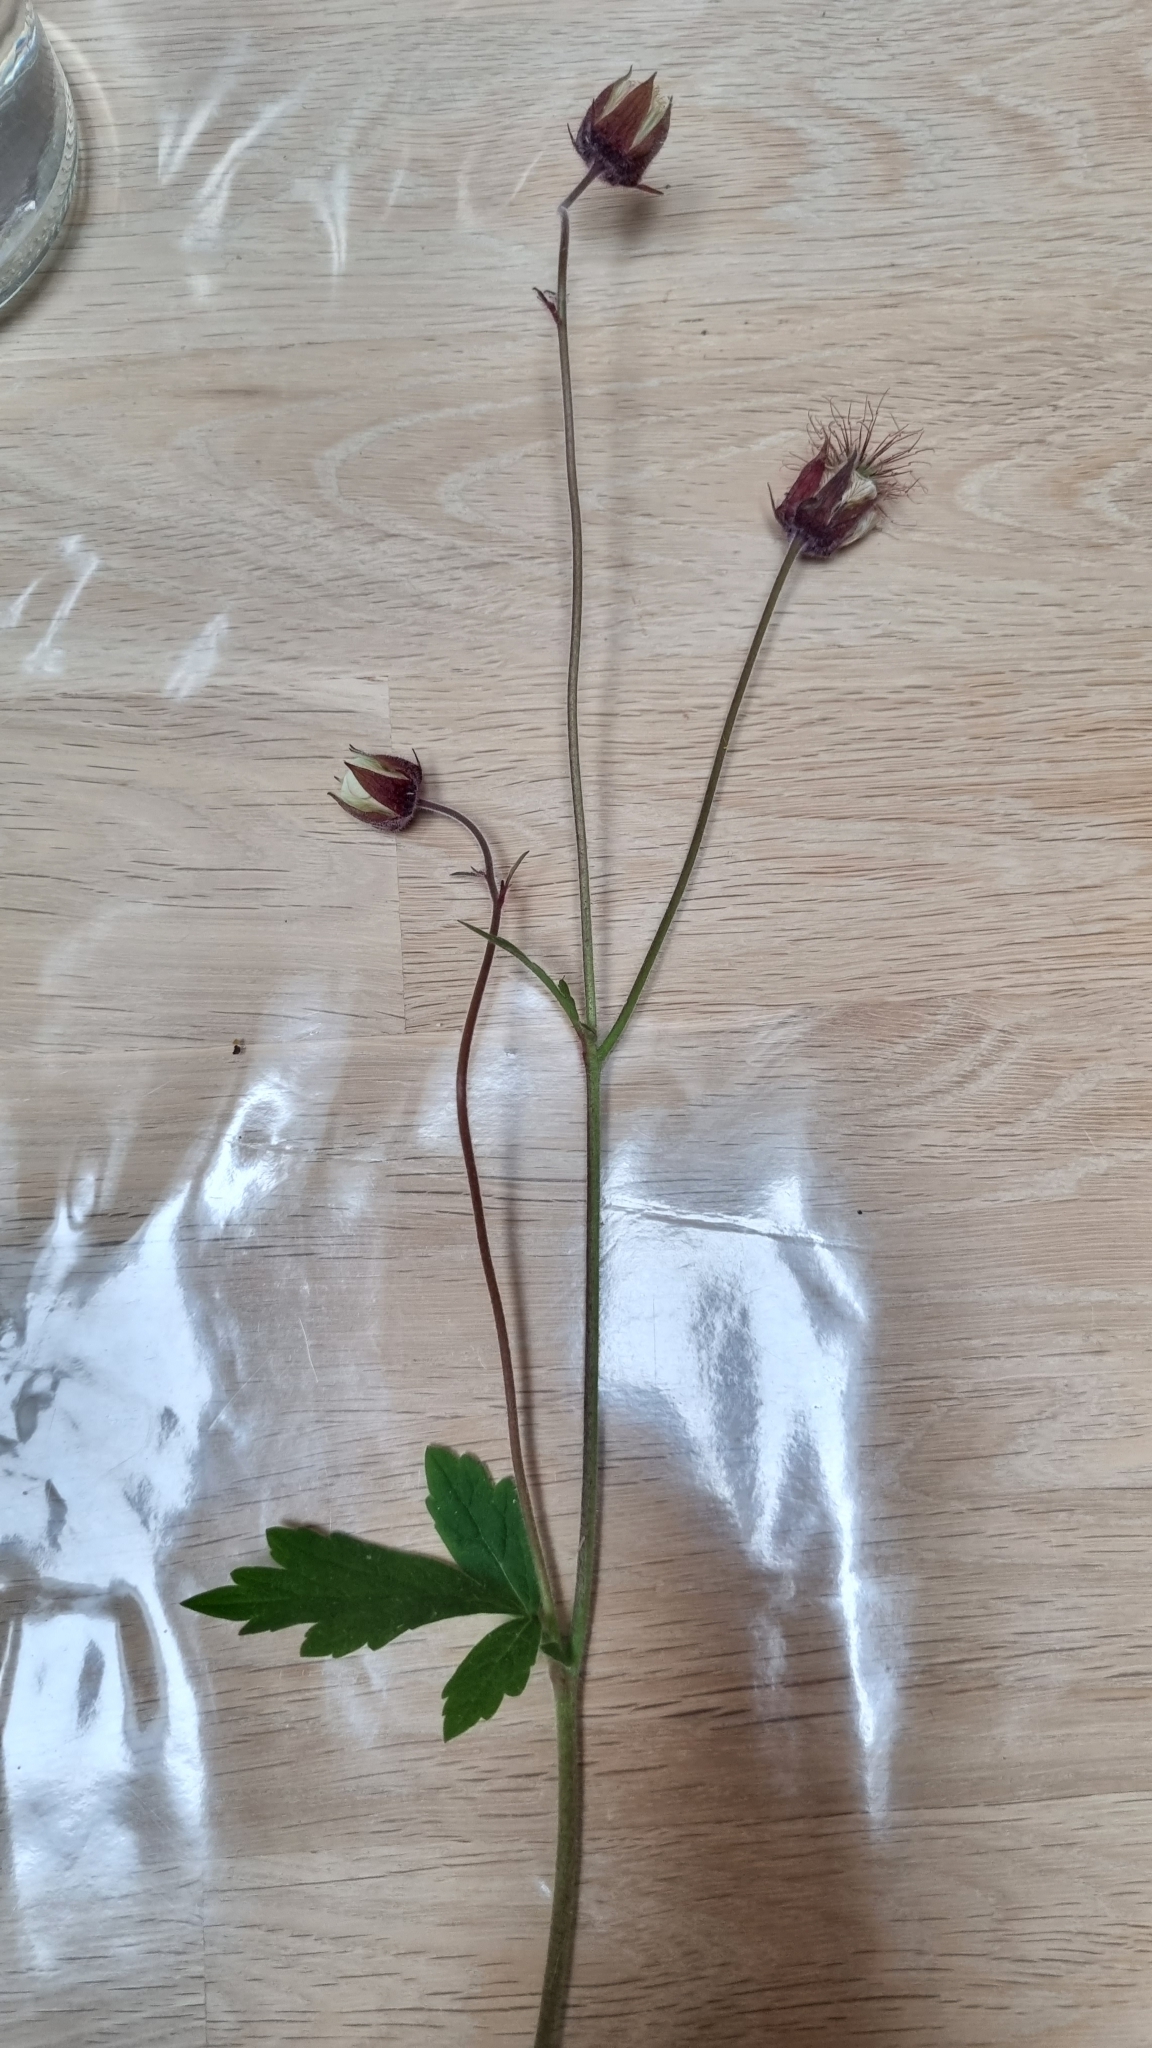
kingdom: Plantae
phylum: Tracheophyta
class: Magnoliopsida
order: Rosales
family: Rosaceae
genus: Geum
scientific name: Geum rivale
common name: Water avens
